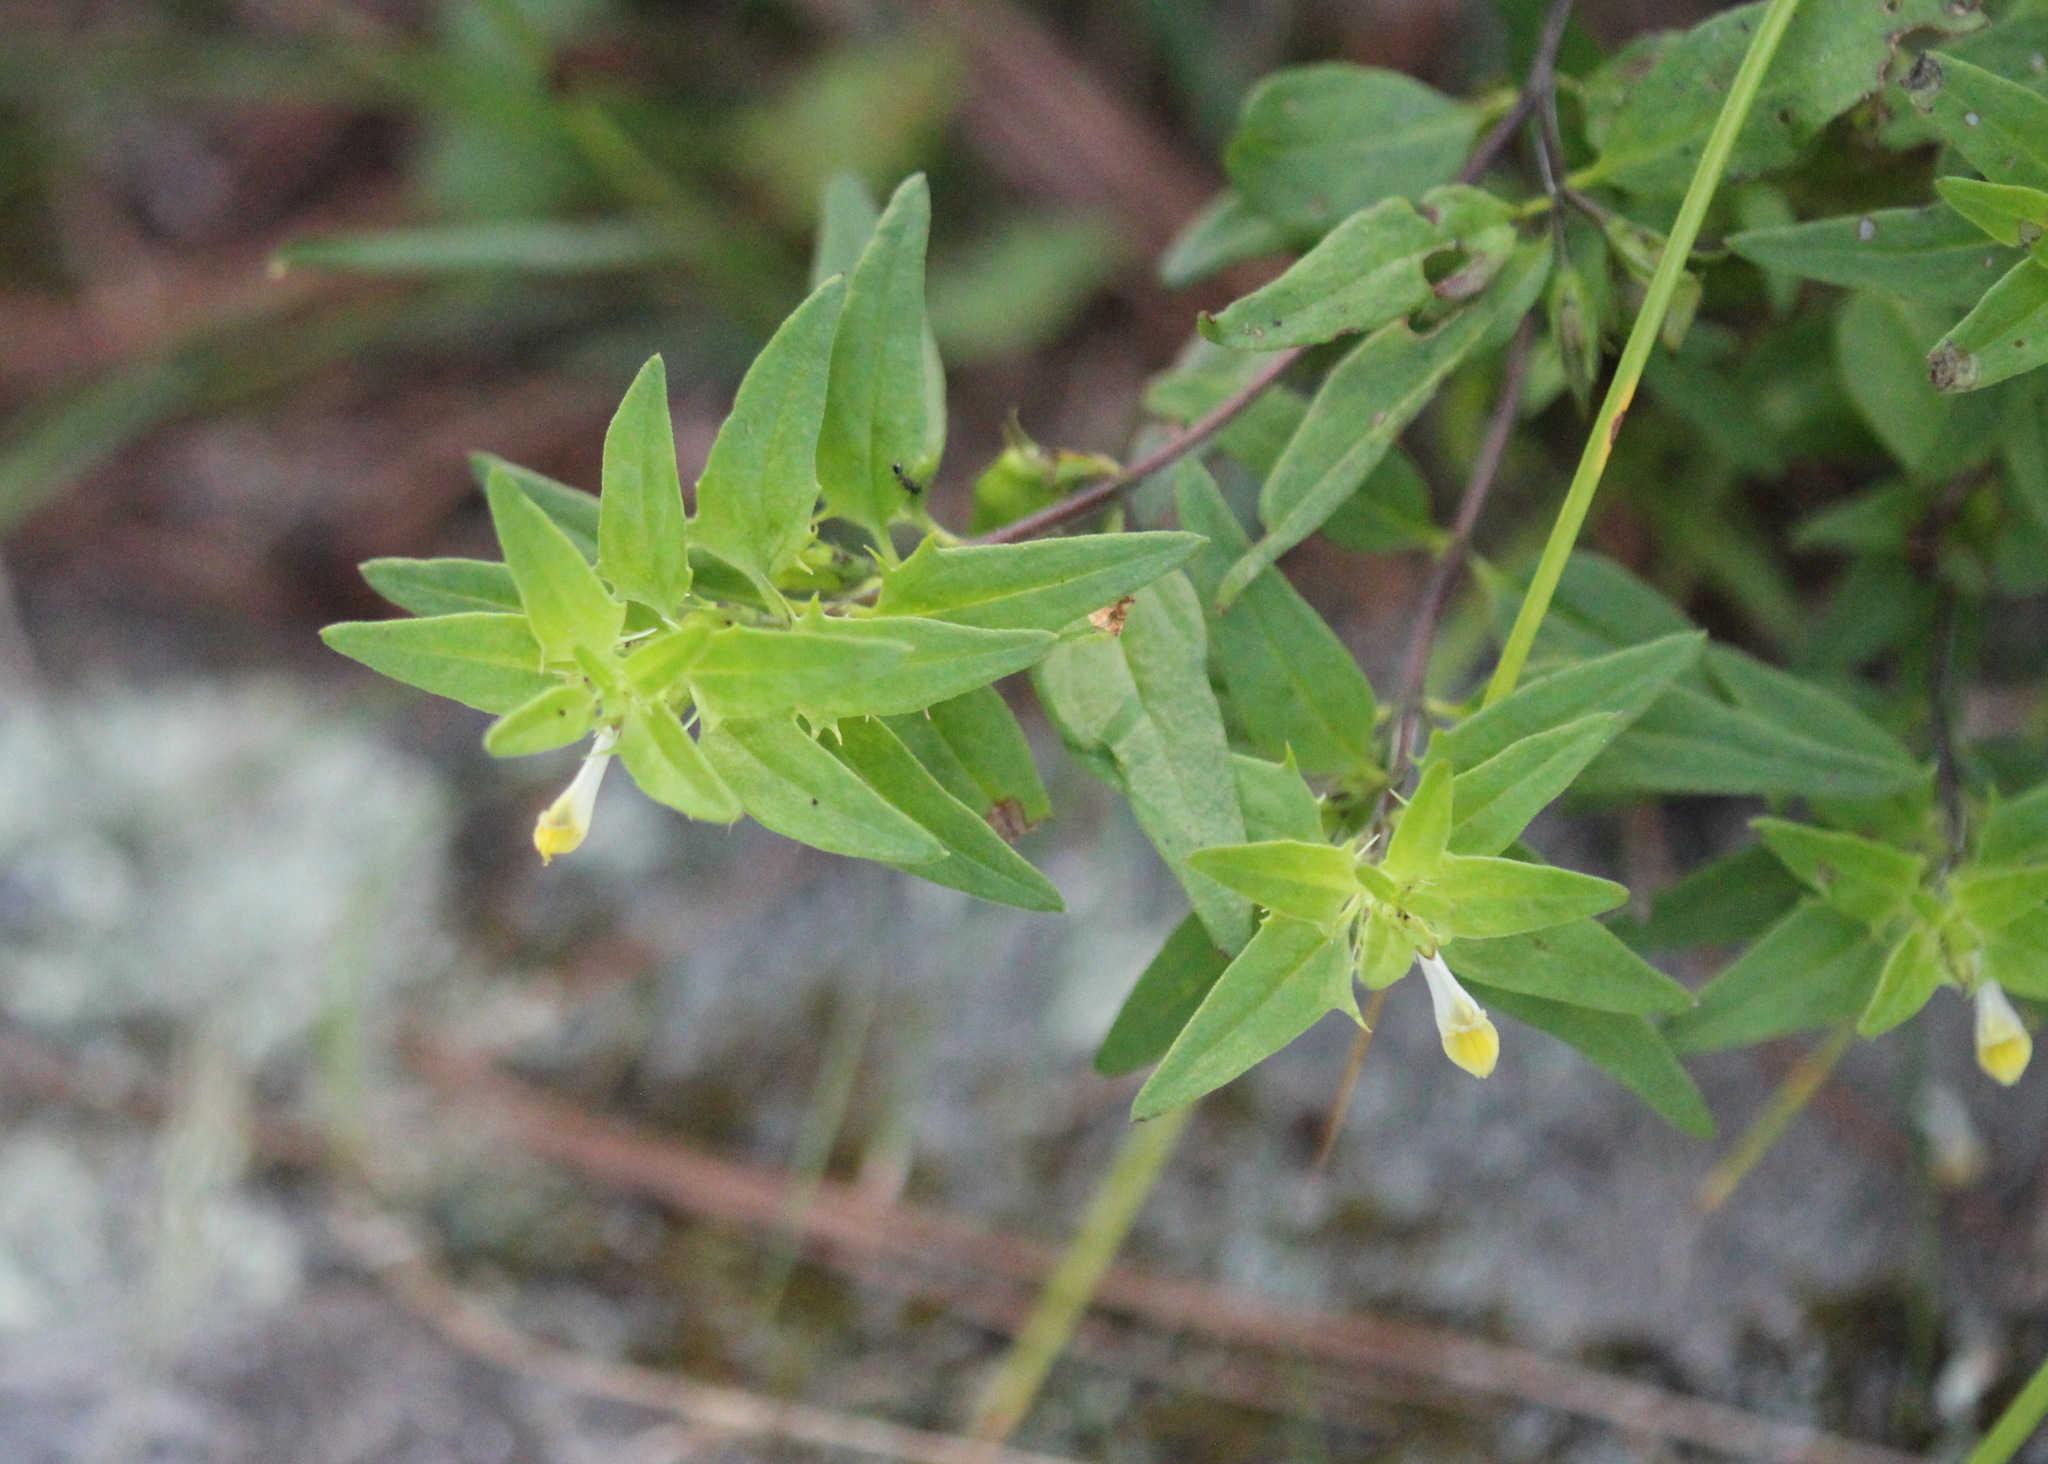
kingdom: Plantae
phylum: Tracheophyta
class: Magnoliopsida
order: Lamiales
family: Orobanchaceae
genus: Melampyrum
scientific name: Melampyrum lineare
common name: American cow-wheat
